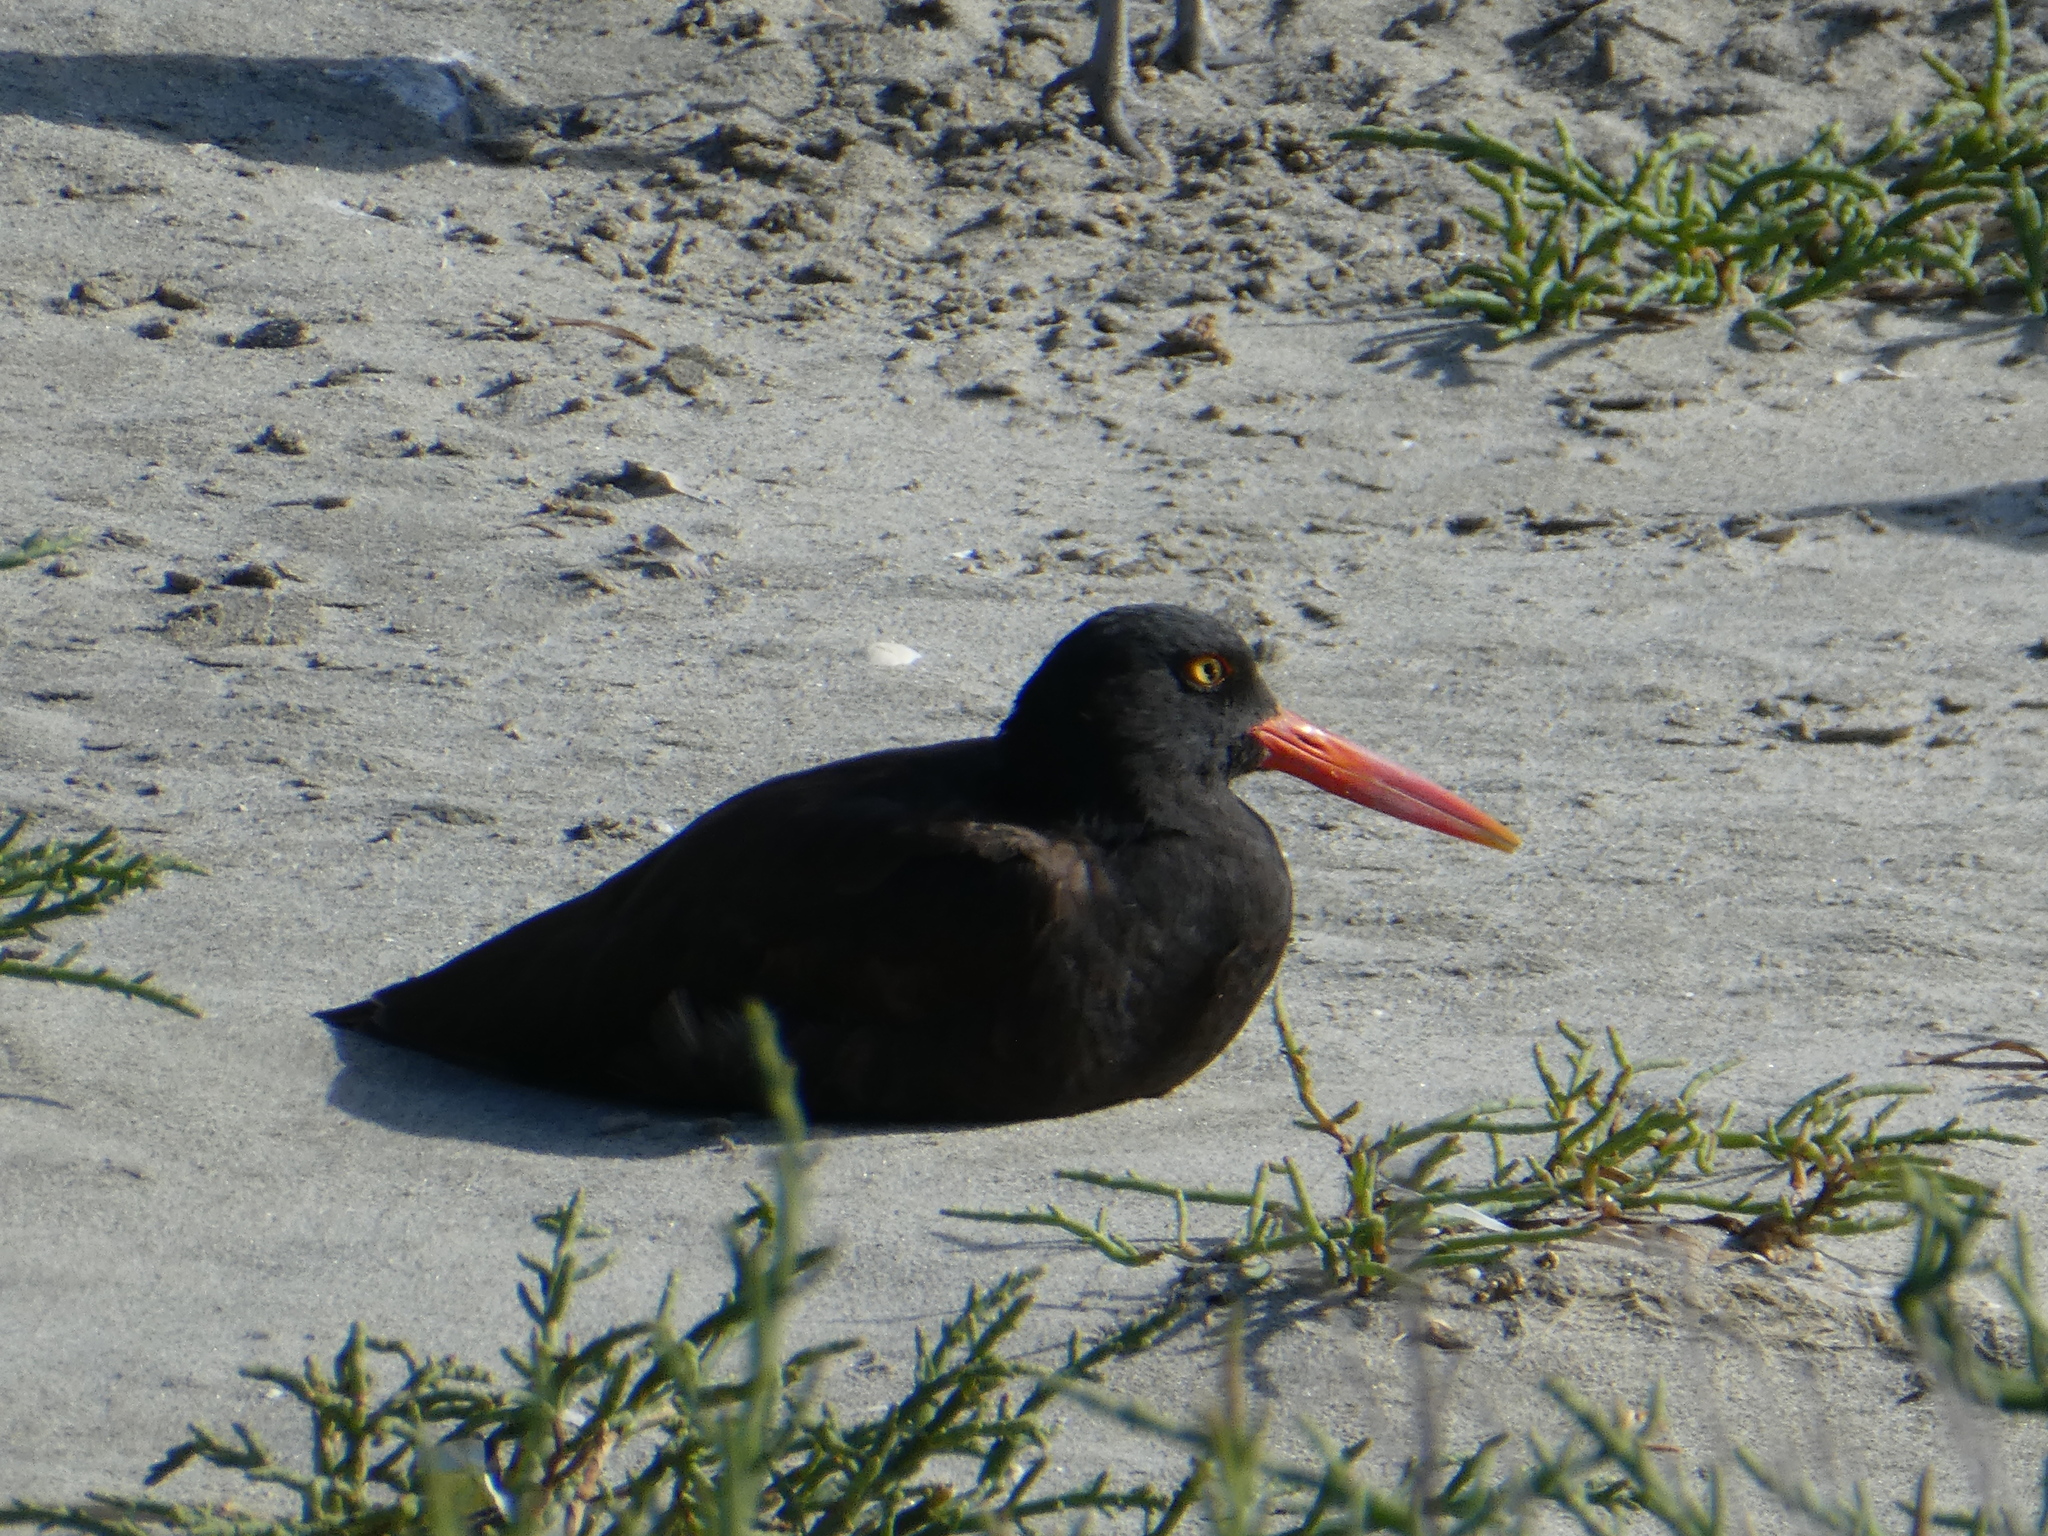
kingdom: Animalia
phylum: Chordata
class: Aves
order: Charadriiformes
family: Haematopodidae
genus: Haematopus
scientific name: Haematopus bachmani
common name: Black oystercatcher
